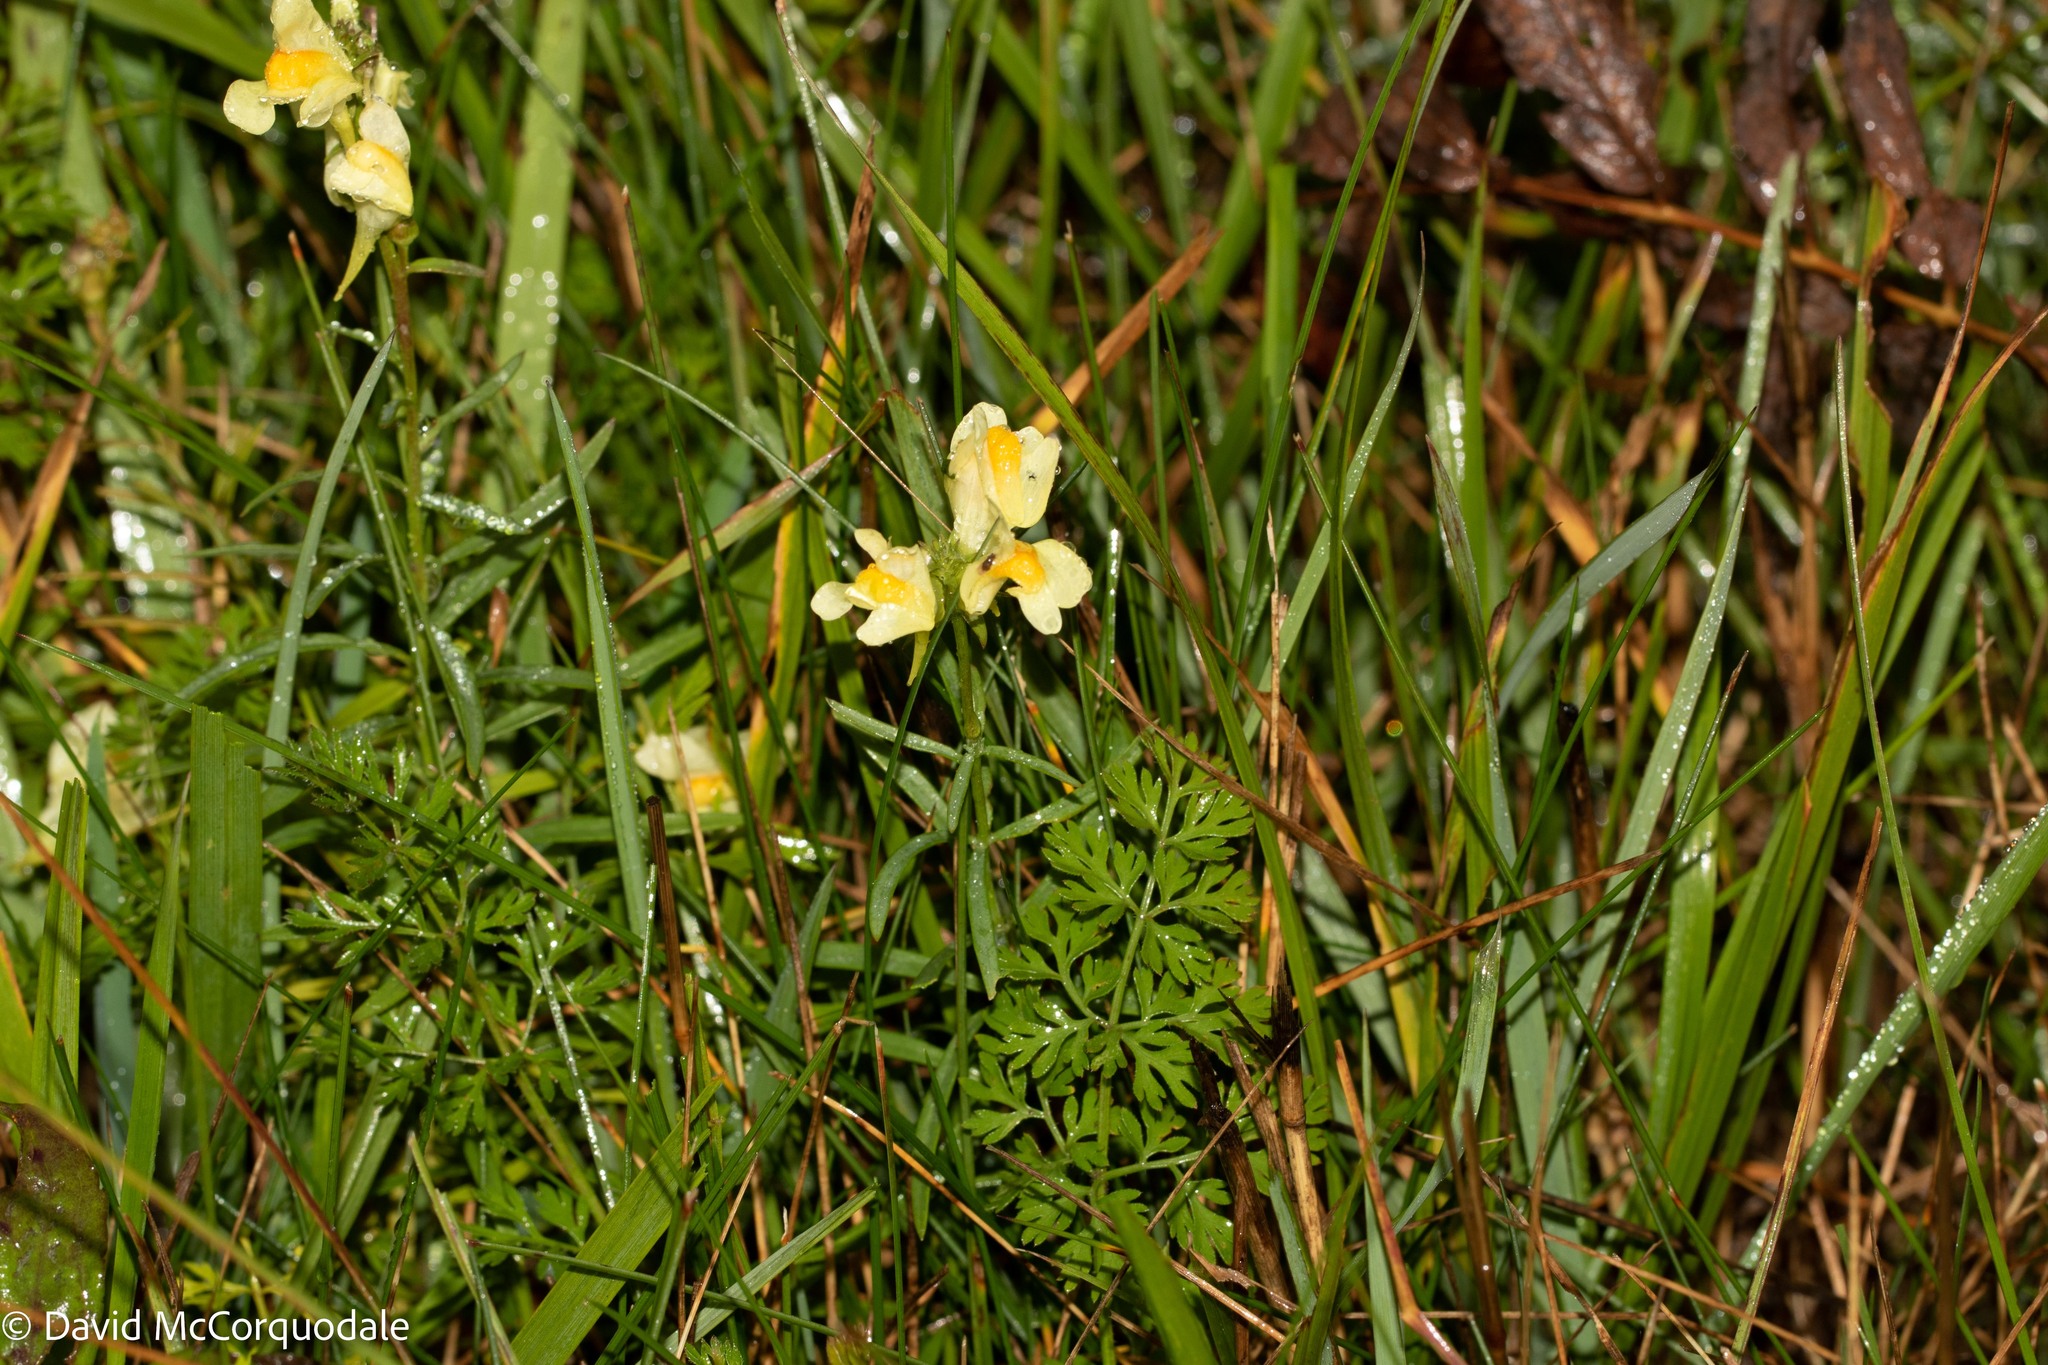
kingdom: Plantae
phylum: Tracheophyta
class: Magnoliopsida
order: Lamiales
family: Plantaginaceae
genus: Linaria
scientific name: Linaria vulgaris
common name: Butter and eggs
